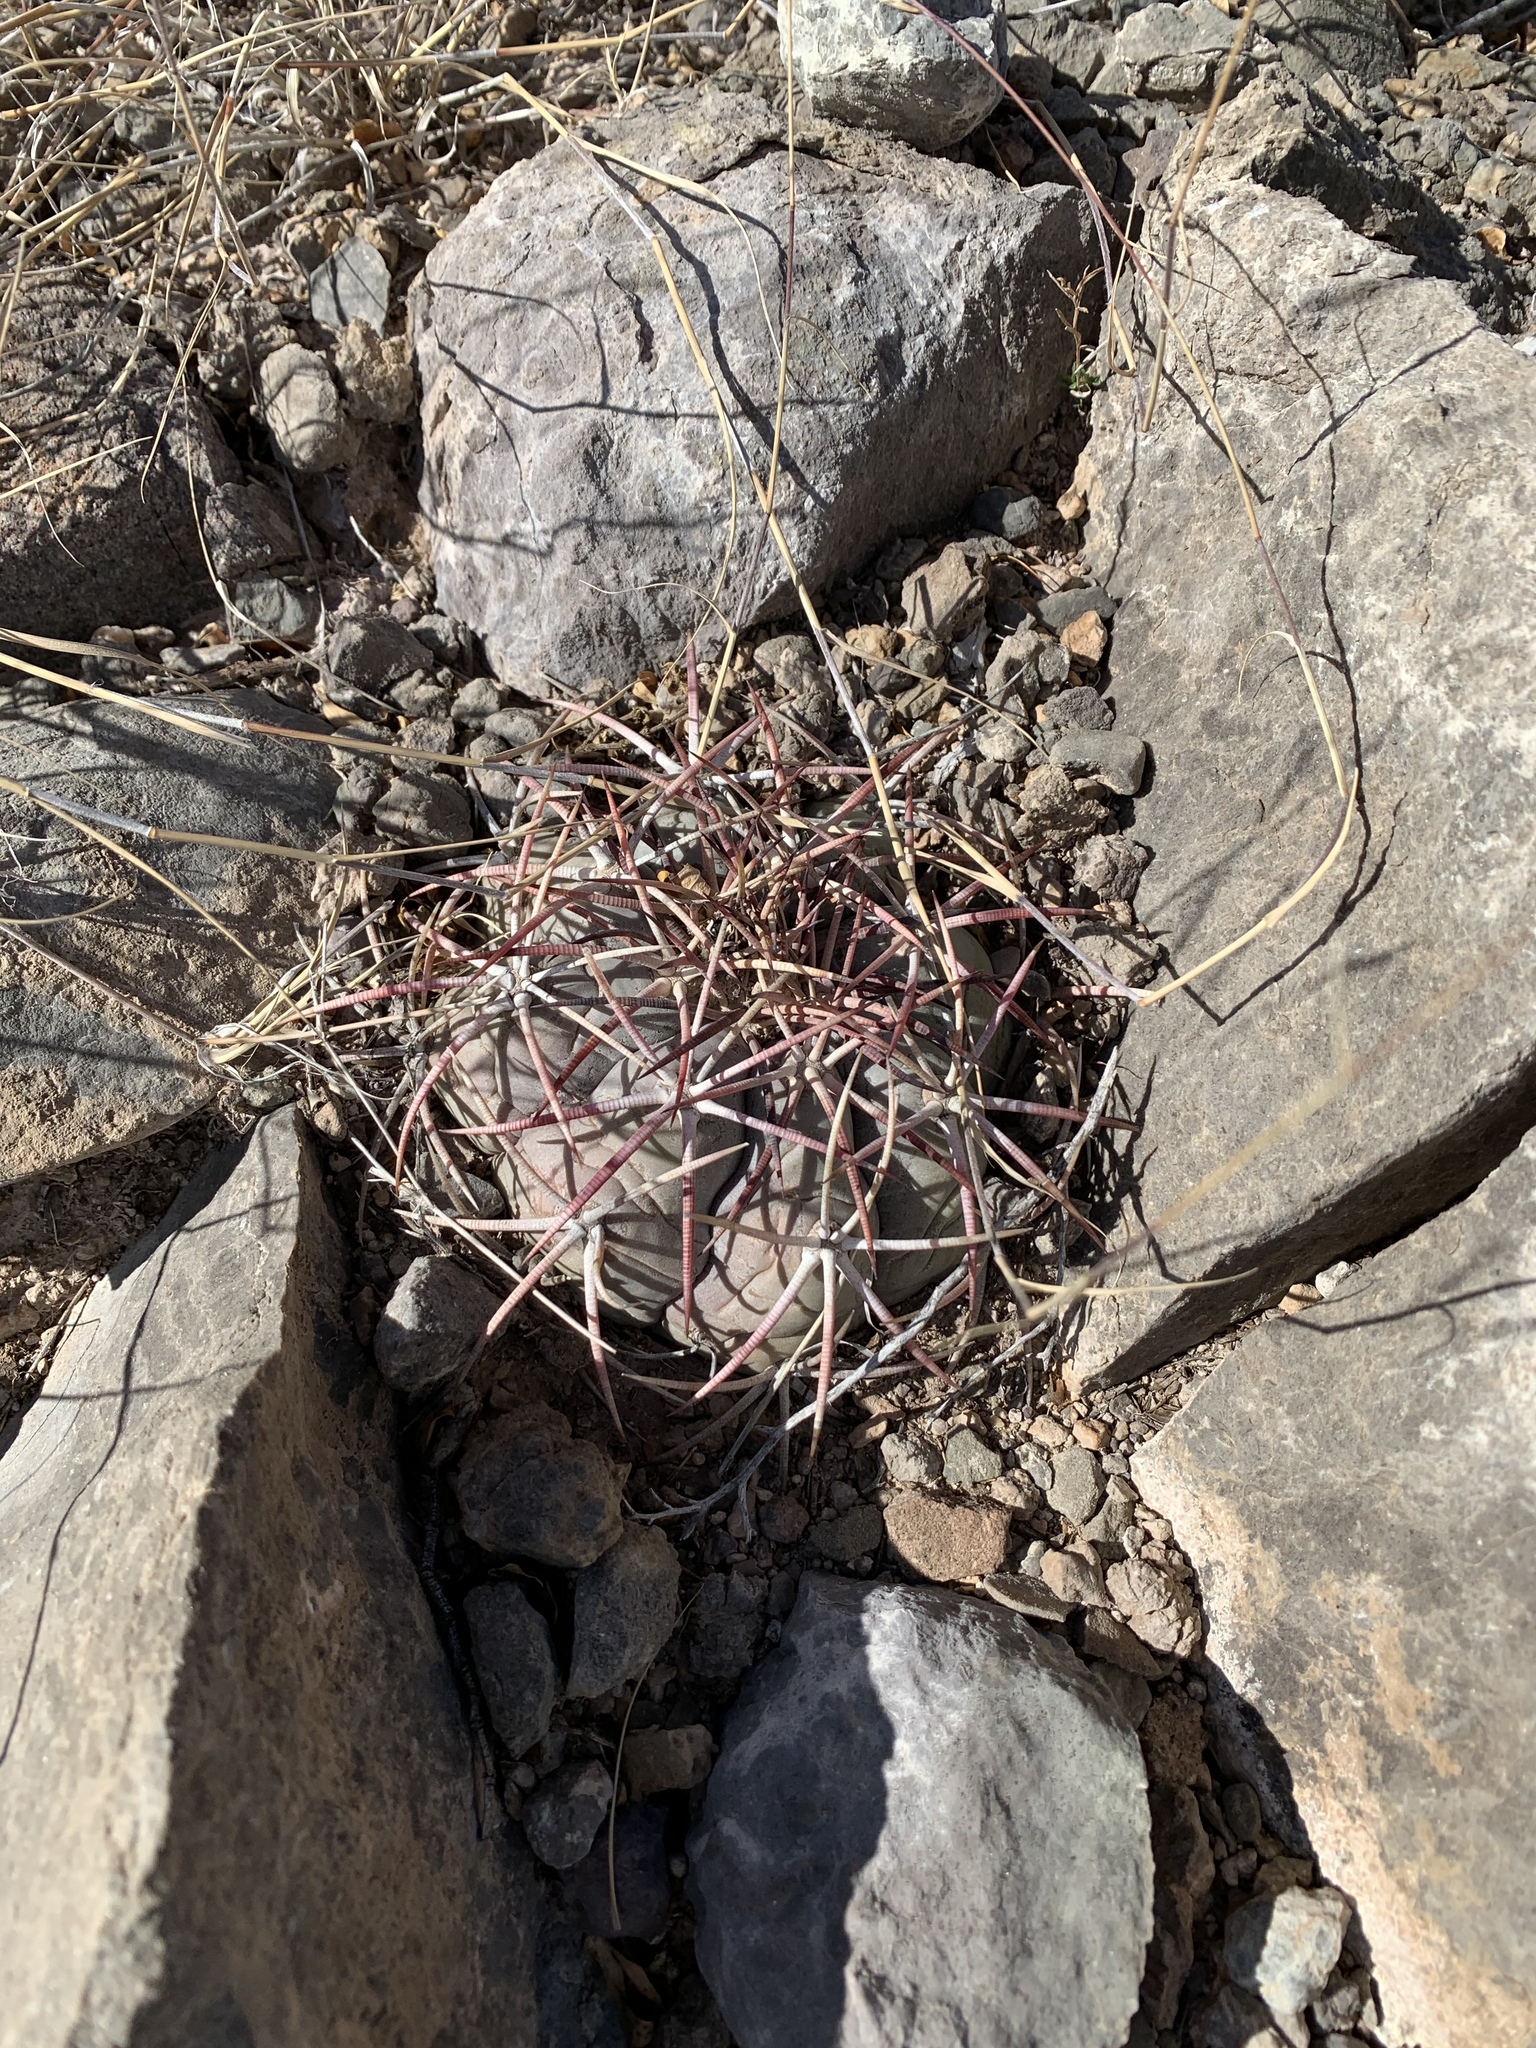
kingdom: Plantae
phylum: Tracheophyta
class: Magnoliopsida
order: Caryophyllales
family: Cactaceae
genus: Echinocactus
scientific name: Echinocactus horizonthalonius
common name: Devilshead
